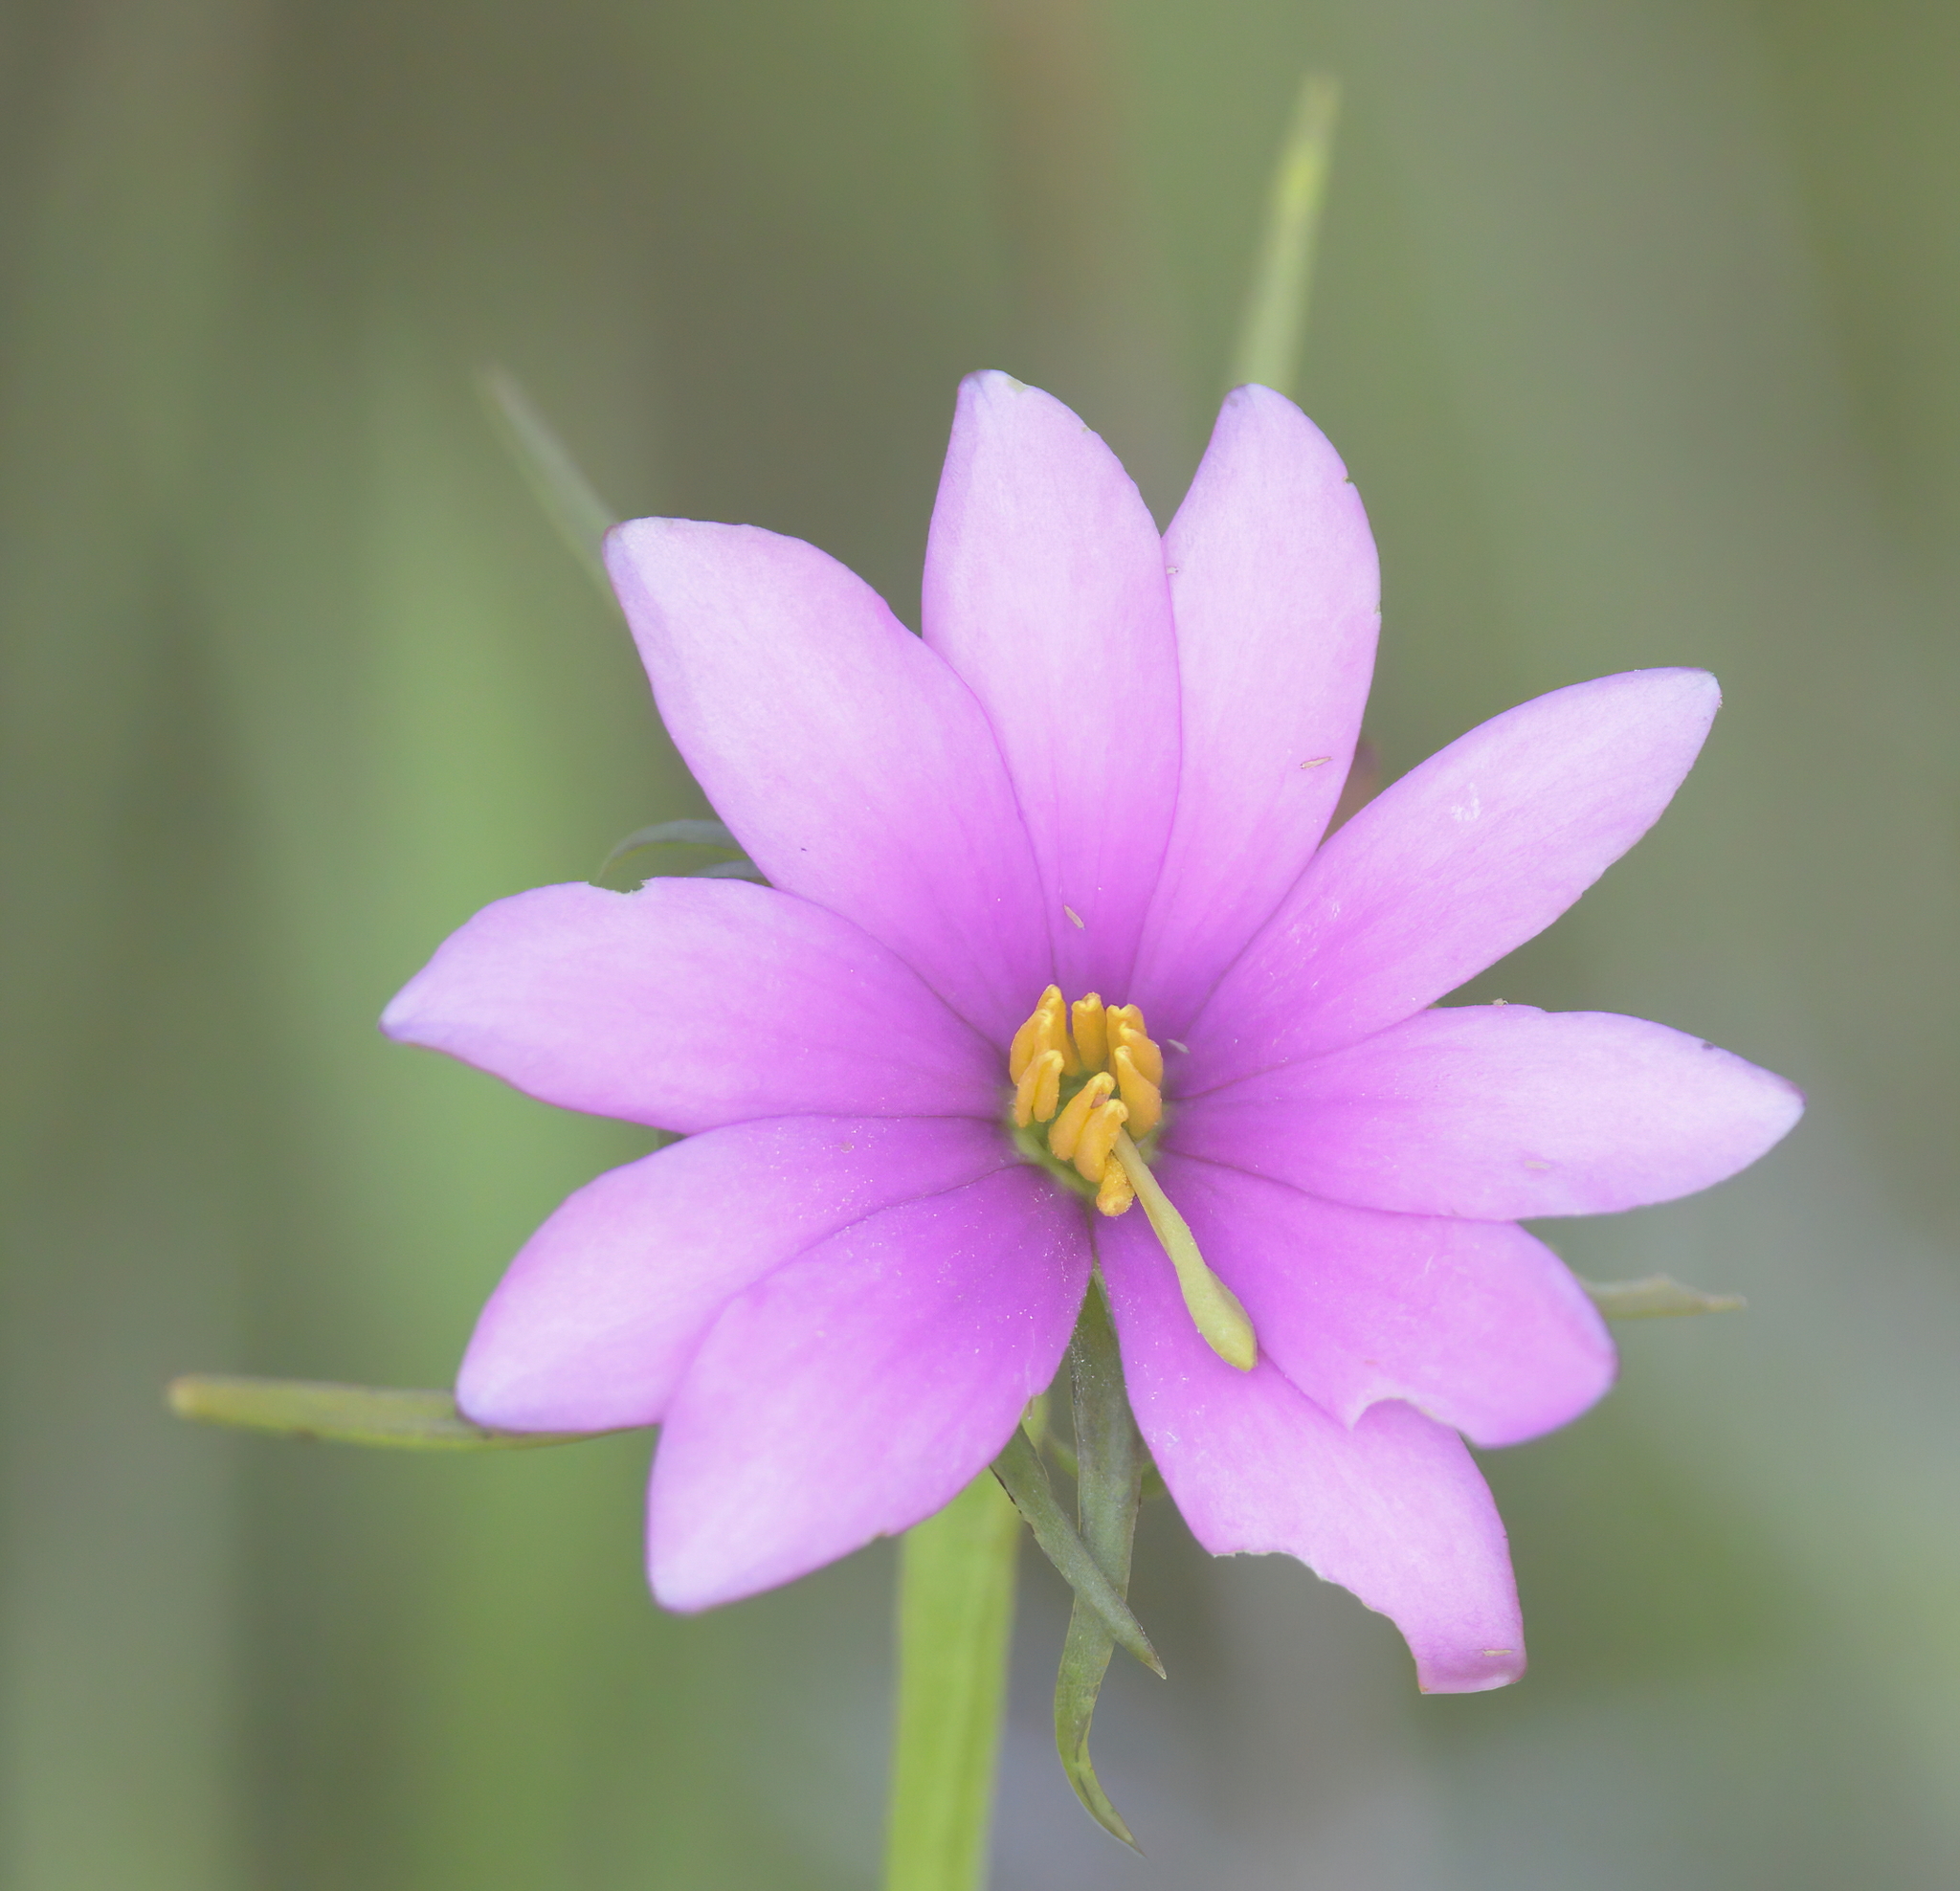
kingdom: Plantae
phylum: Tracheophyta
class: Magnoliopsida
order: Gentianales
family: Gentianaceae
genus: Sabatia
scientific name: Sabatia gentianoides
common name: Pinewoods rose-gentian
